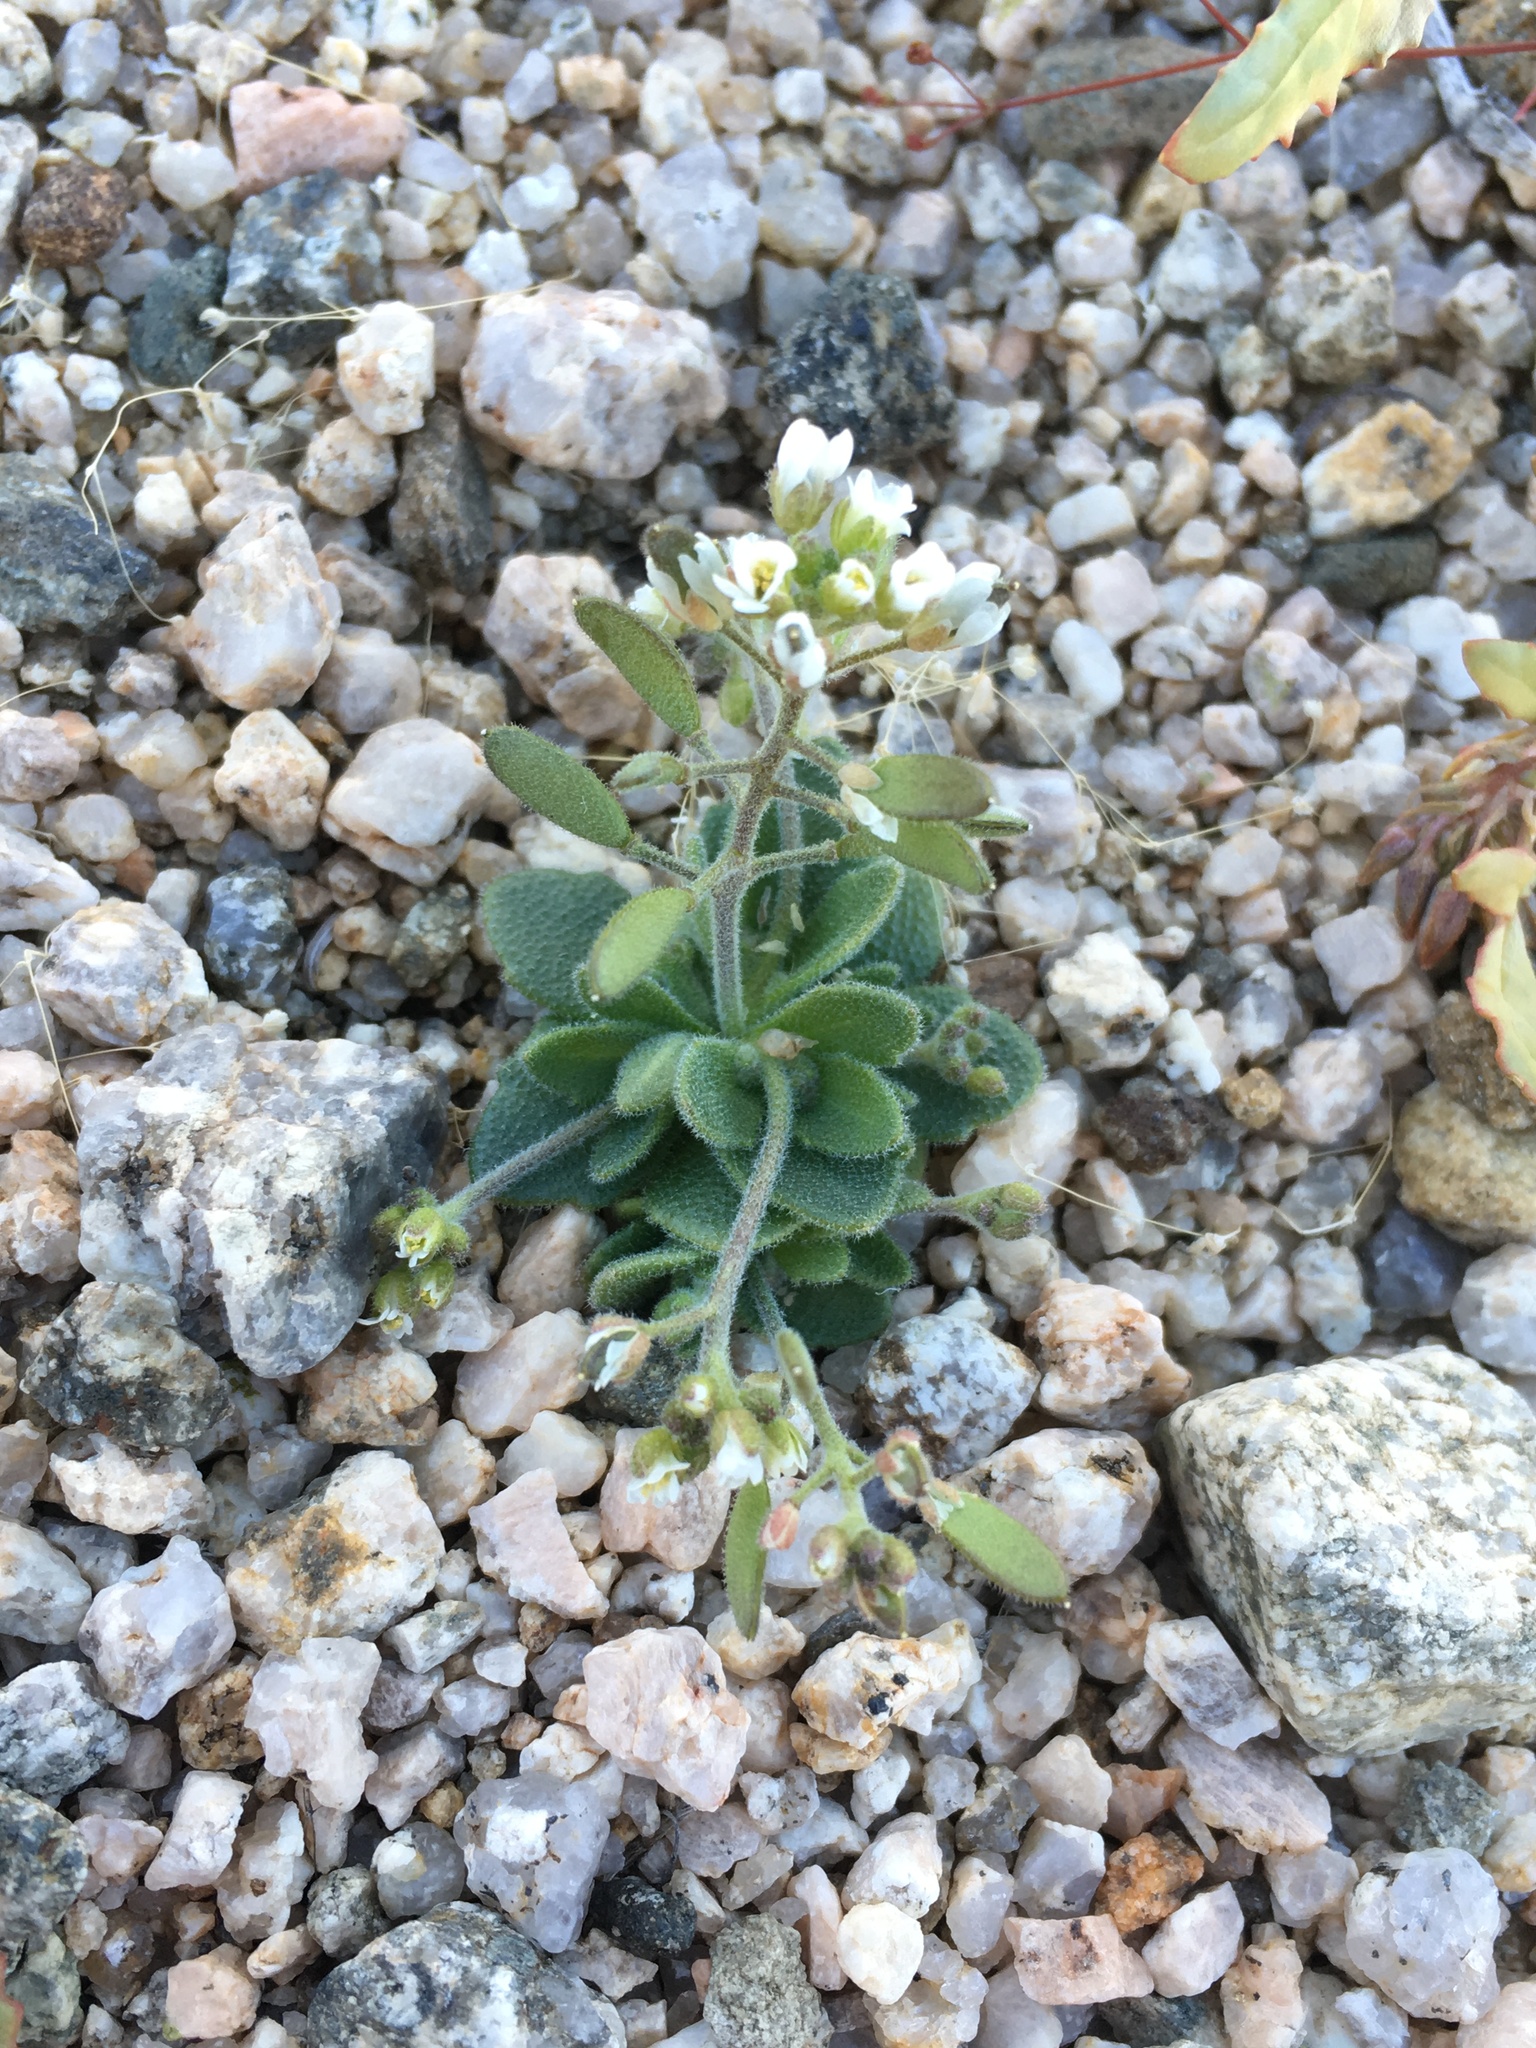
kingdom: Plantae
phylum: Tracheophyta
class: Magnoliopsida
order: Brassicales
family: Brassicaceae
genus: Tomostima
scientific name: Tomostima cuneifolia
